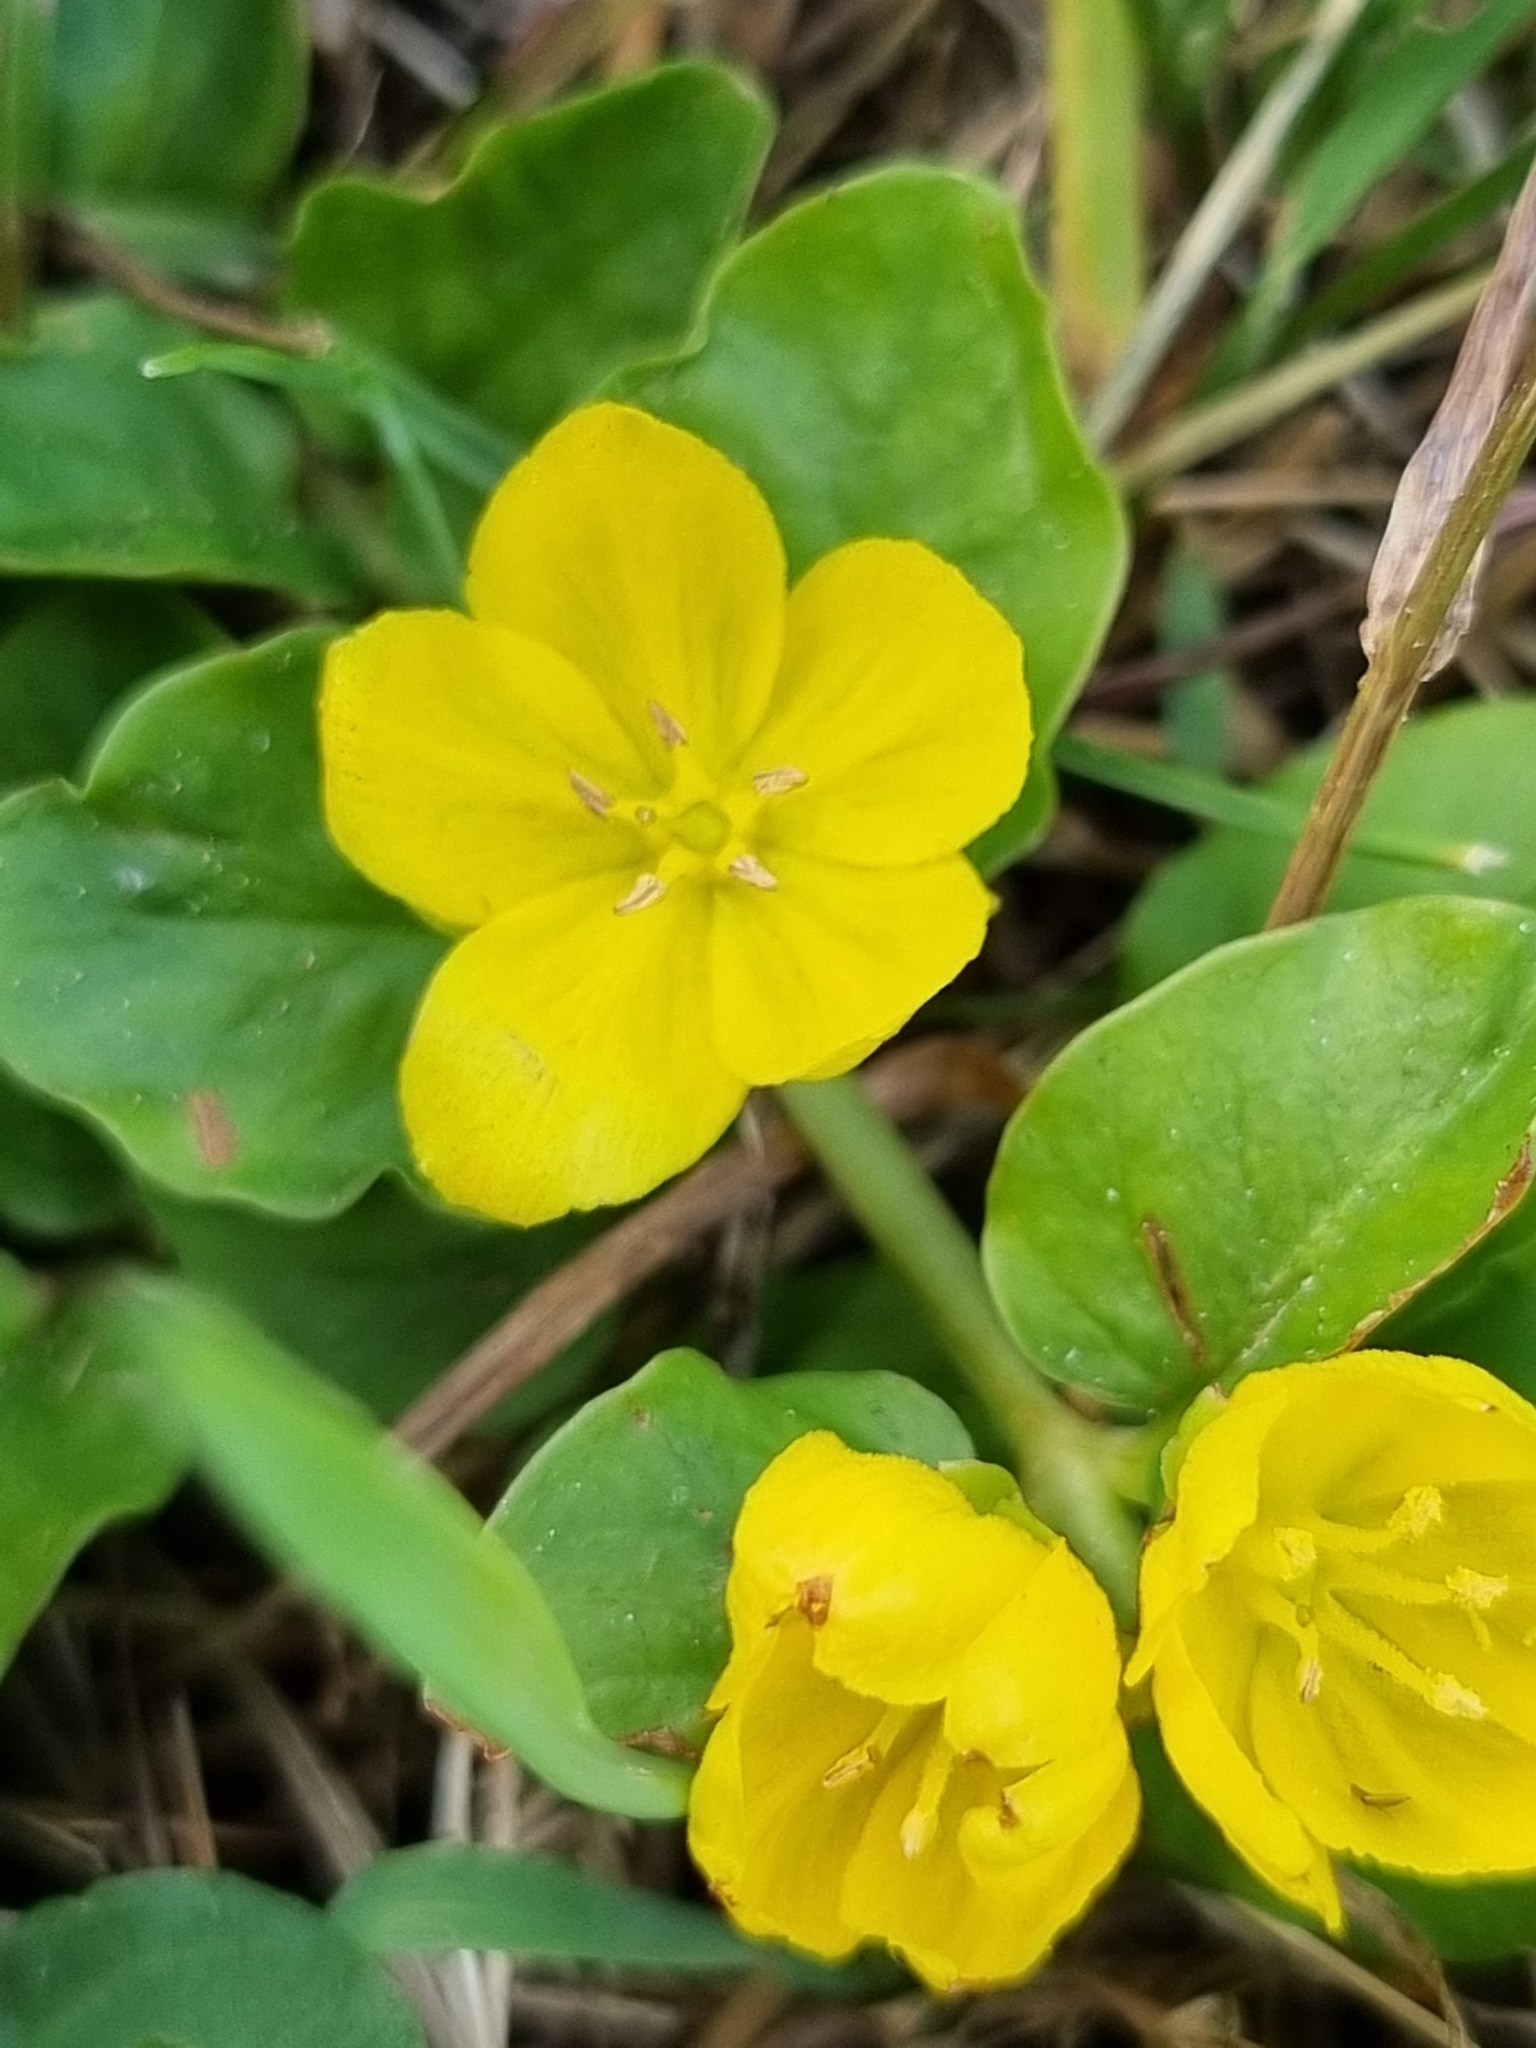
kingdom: Plantae
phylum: Tracheophyta
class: Magnoliopsida
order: Ericales
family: Primulaceae
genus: Lysimachia
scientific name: Lysimachia nummularia
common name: Moneywort
